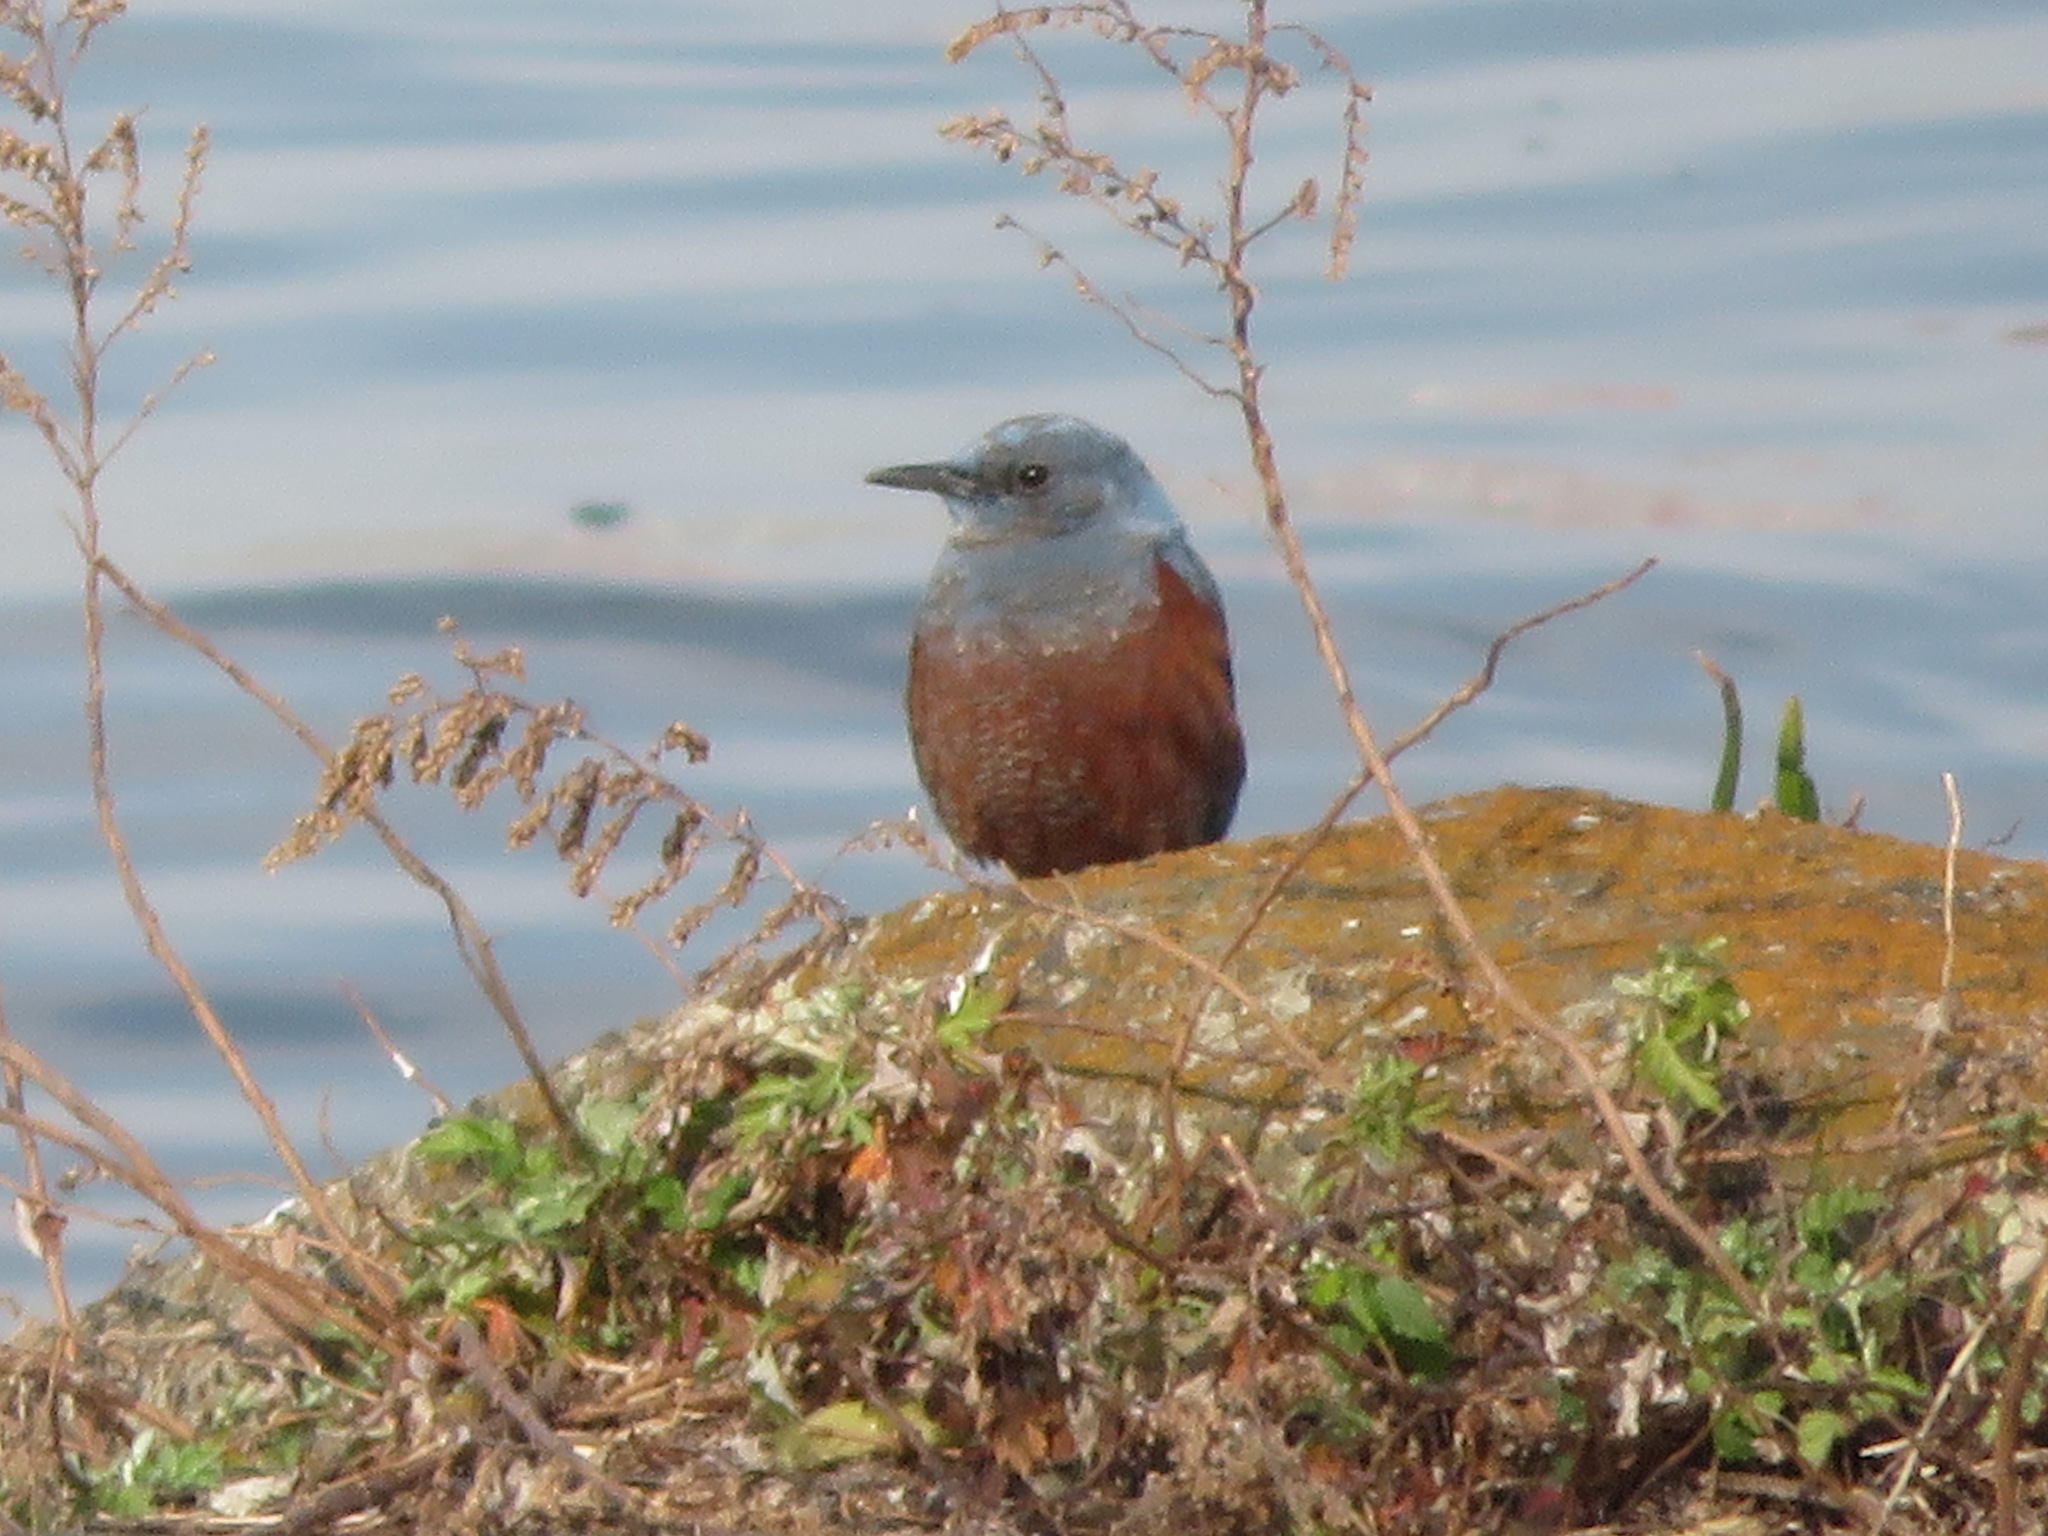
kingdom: Animalia
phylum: Chordata
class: Aves
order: Passeriformes
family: Muscicapidae
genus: Monticola
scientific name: Monticola solitarius
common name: Blue rock thrush
